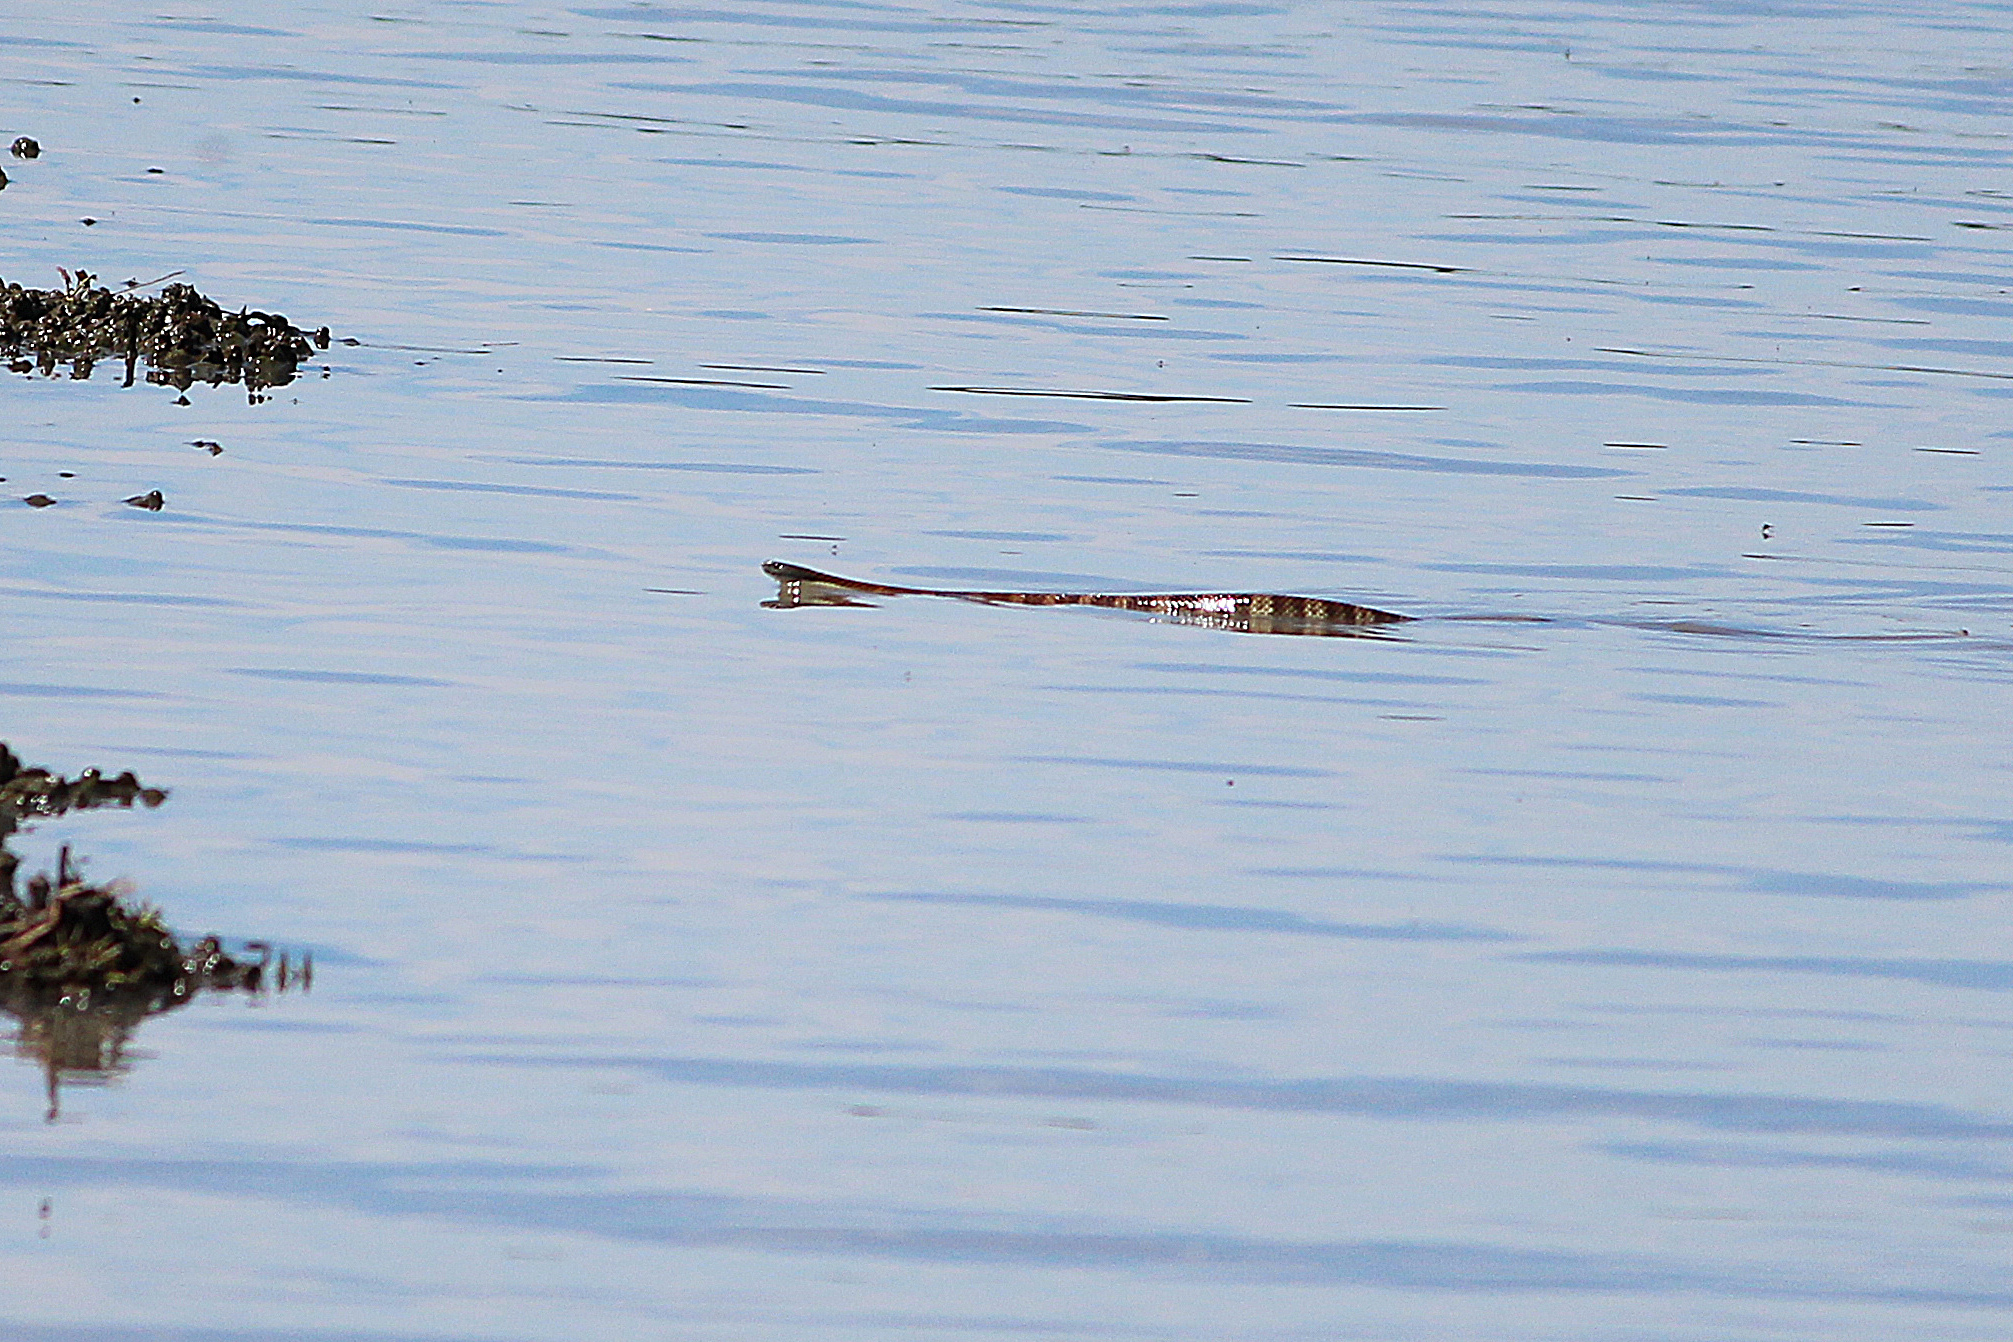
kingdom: Animalia
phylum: Chordata
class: Squamata
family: Elapidae
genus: Notechis
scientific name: Notechis scutatus
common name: Mainland tiger snake
